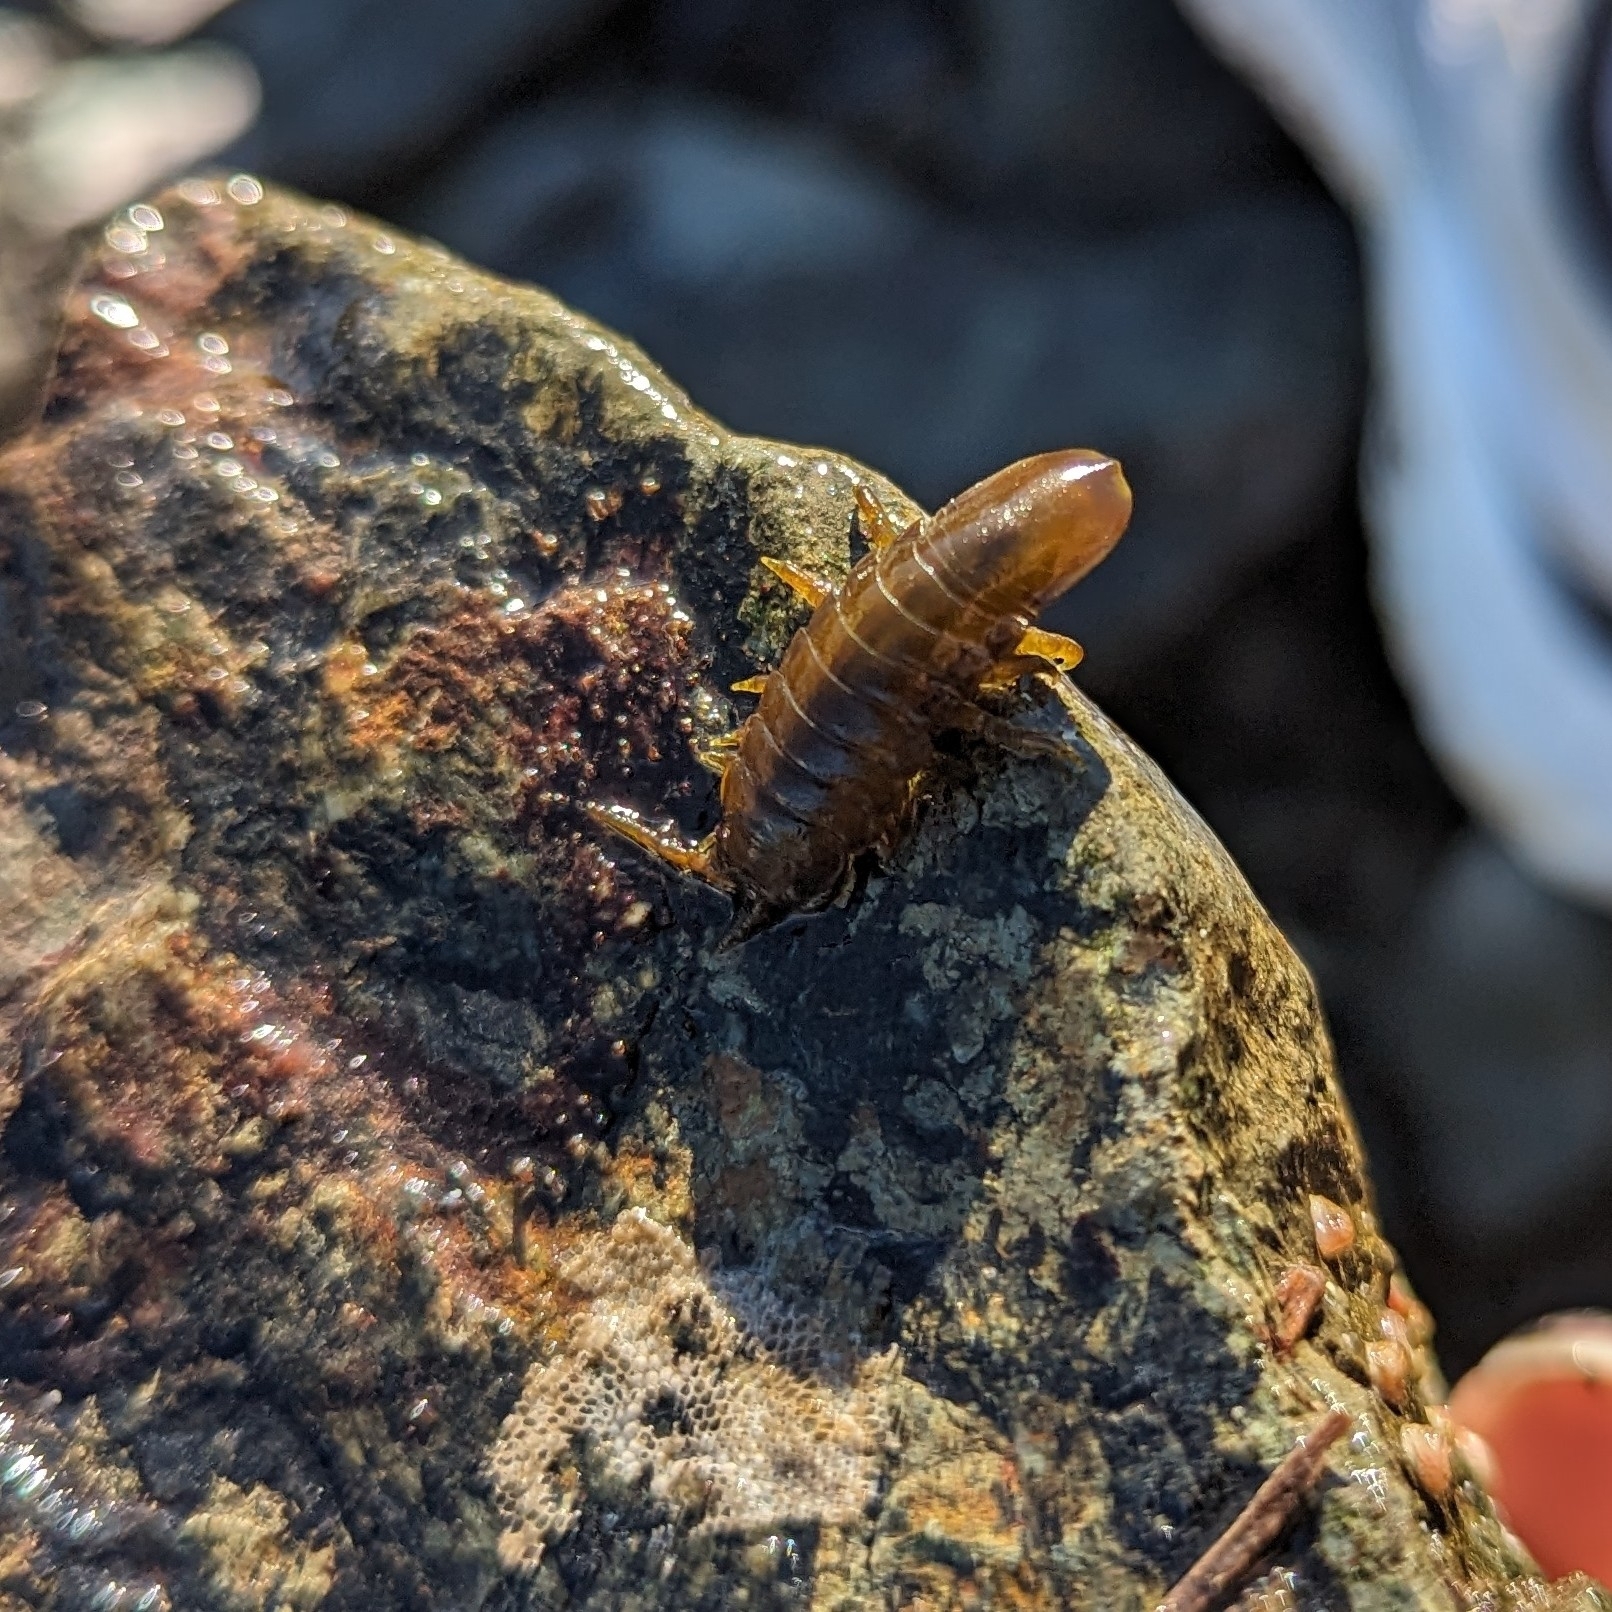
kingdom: Animalia
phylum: Arthropoda
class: Malacostraca
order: Isopoda
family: Idoteidae
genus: Pentidotea
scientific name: Pentidotea wosnesenskii
